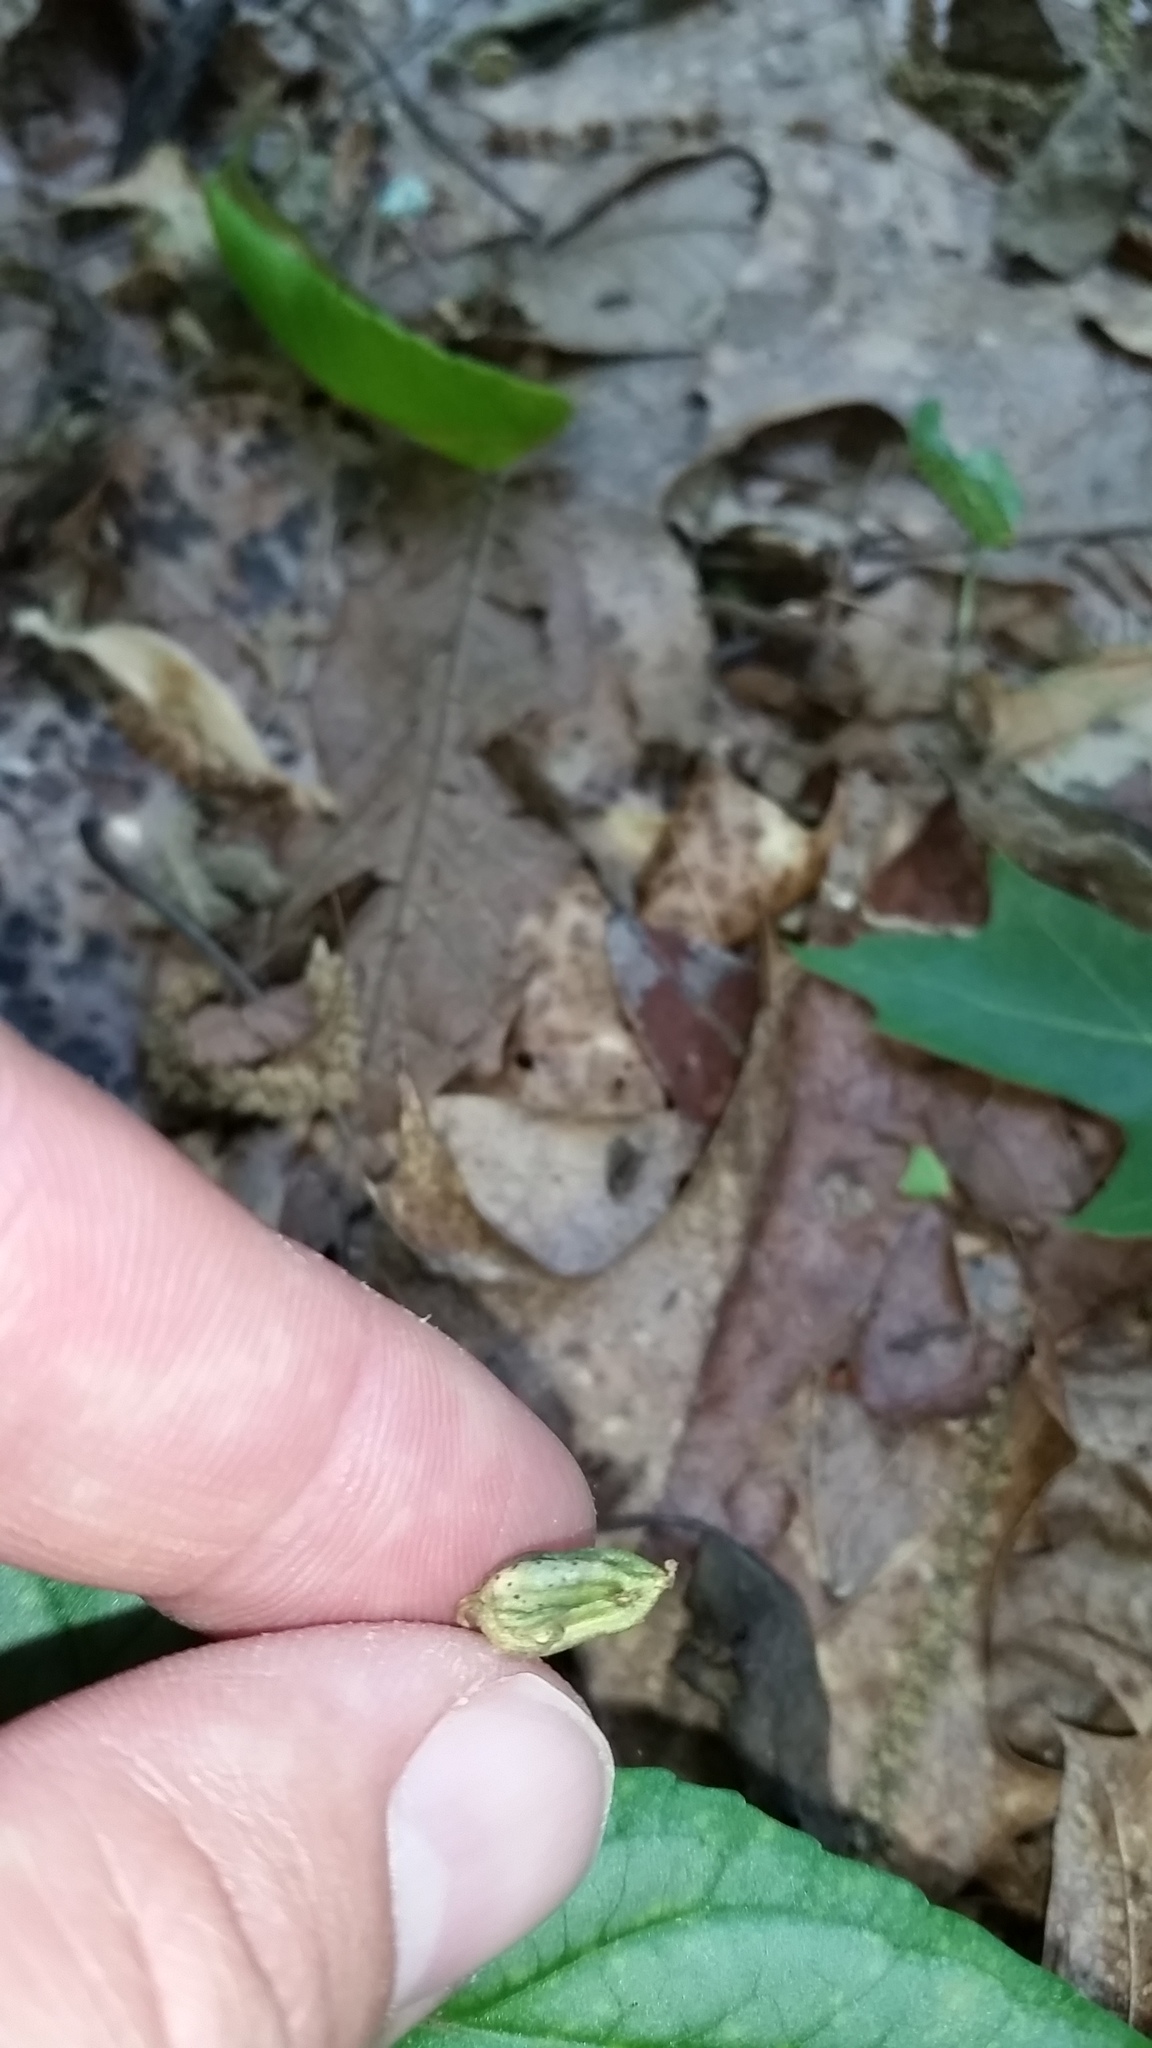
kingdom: Plantae
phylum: Tracheophyta
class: Magnoliopsida
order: Malpighiales
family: Violaceae
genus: Viola
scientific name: Viola hastata
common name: Spear-leaf violet
